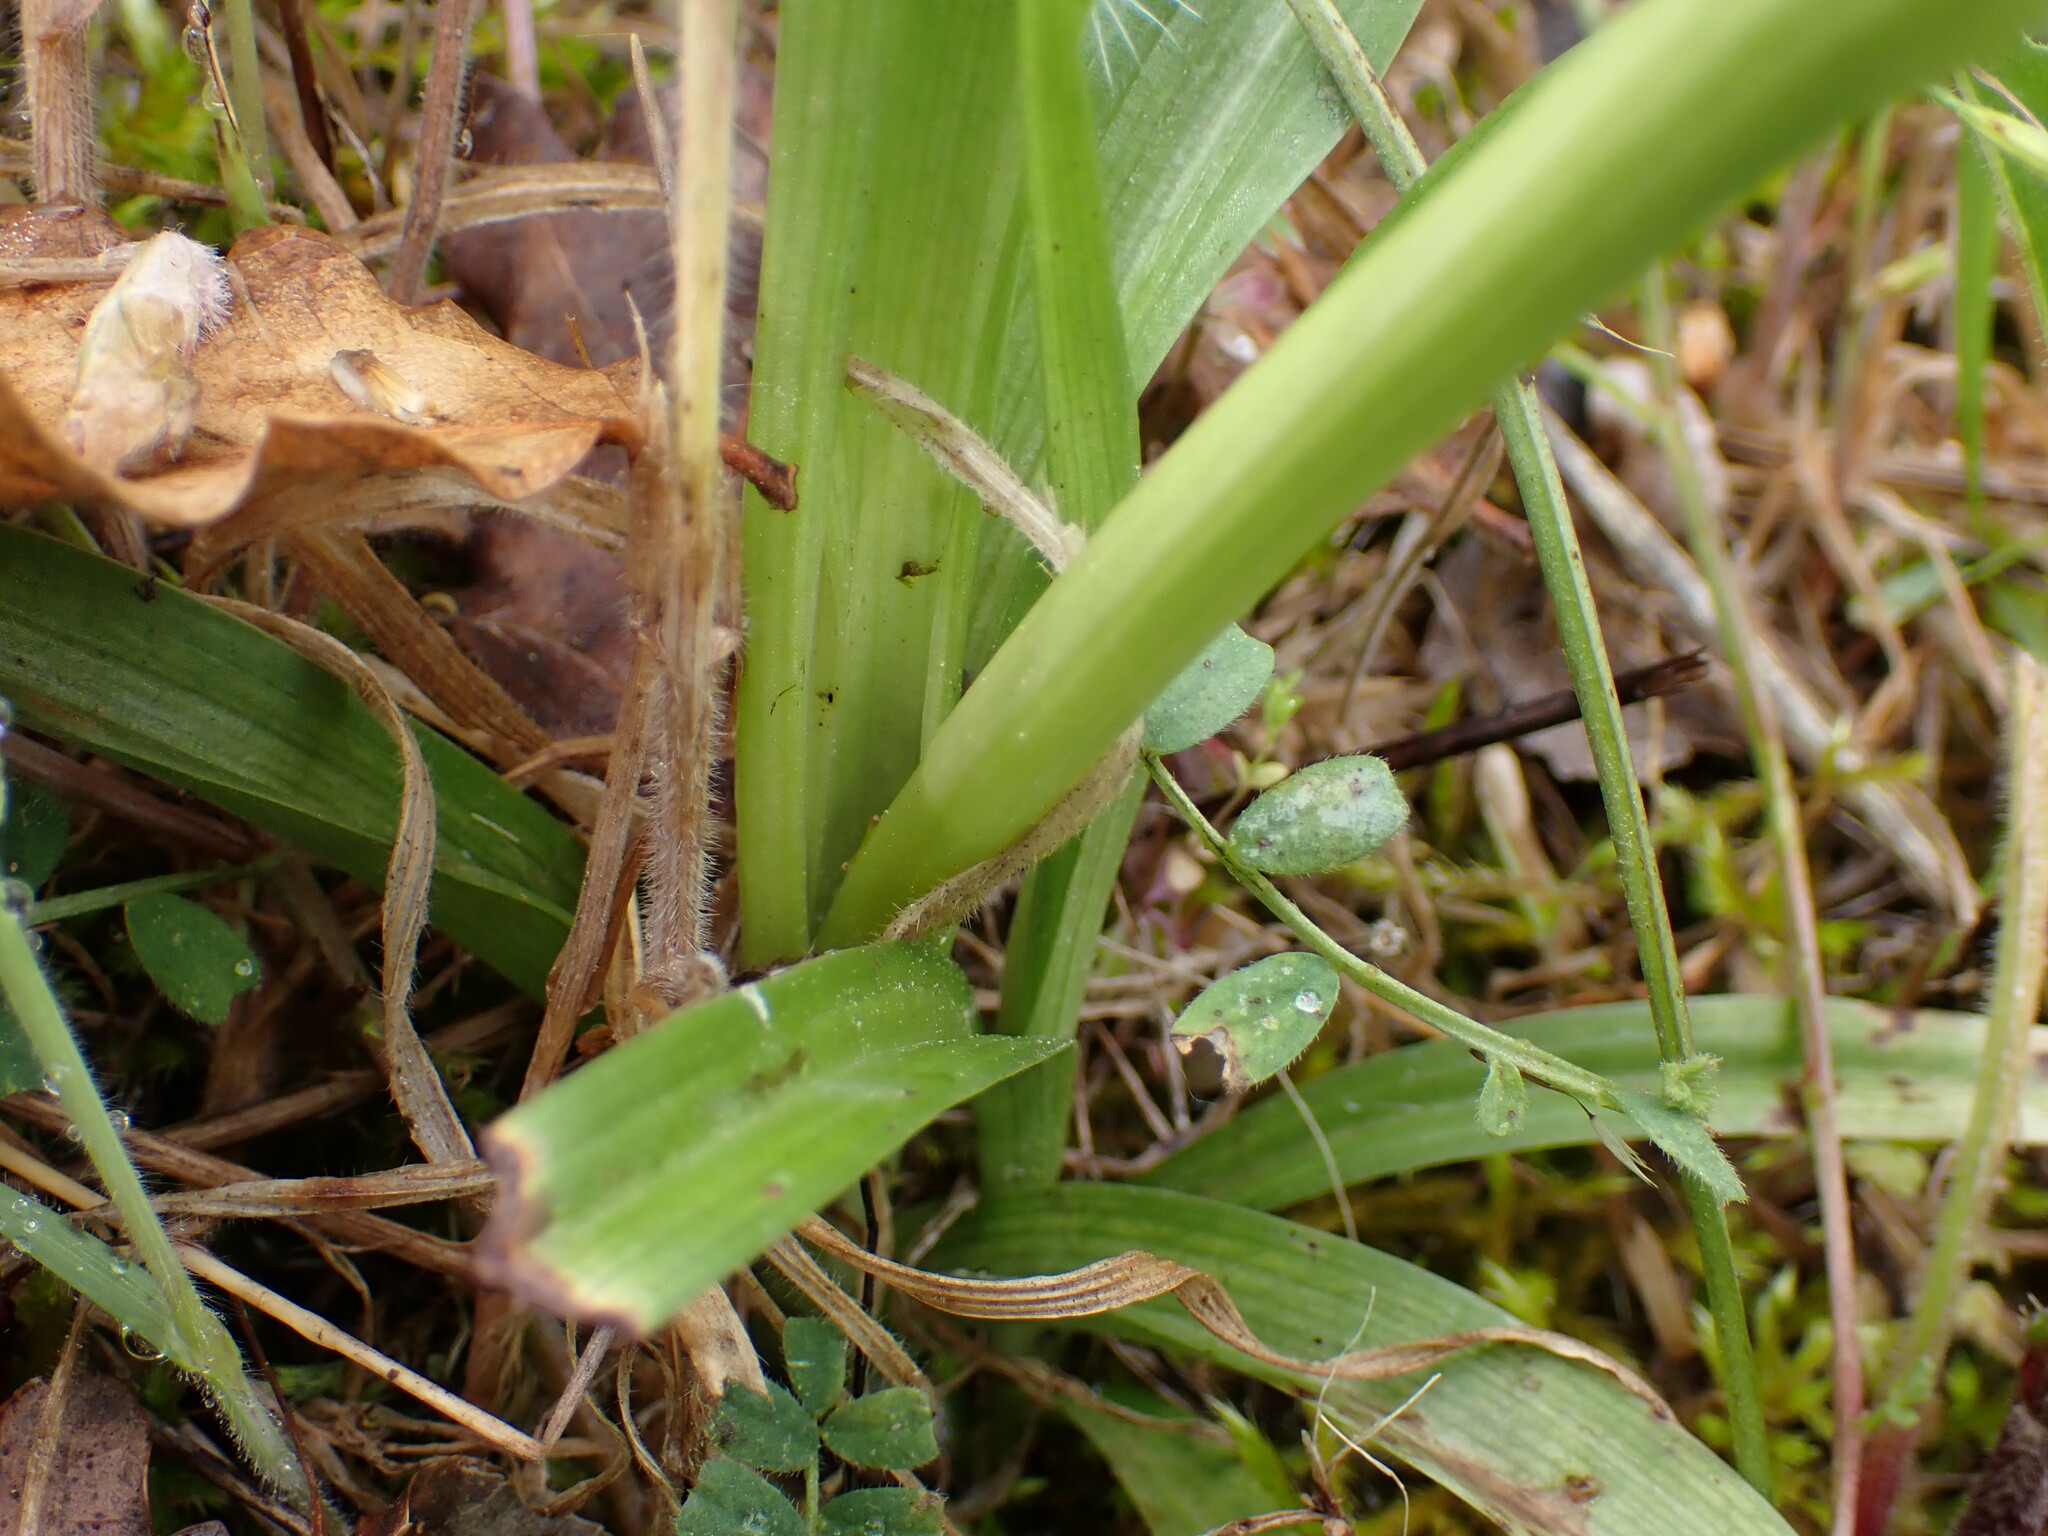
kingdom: Plantae
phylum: Tracheophyta
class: Liliopsida
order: Asparagales
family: Orchidaceae
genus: Anacamptis
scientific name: Anacamptis pyramidalis
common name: Pyramidal orchid
